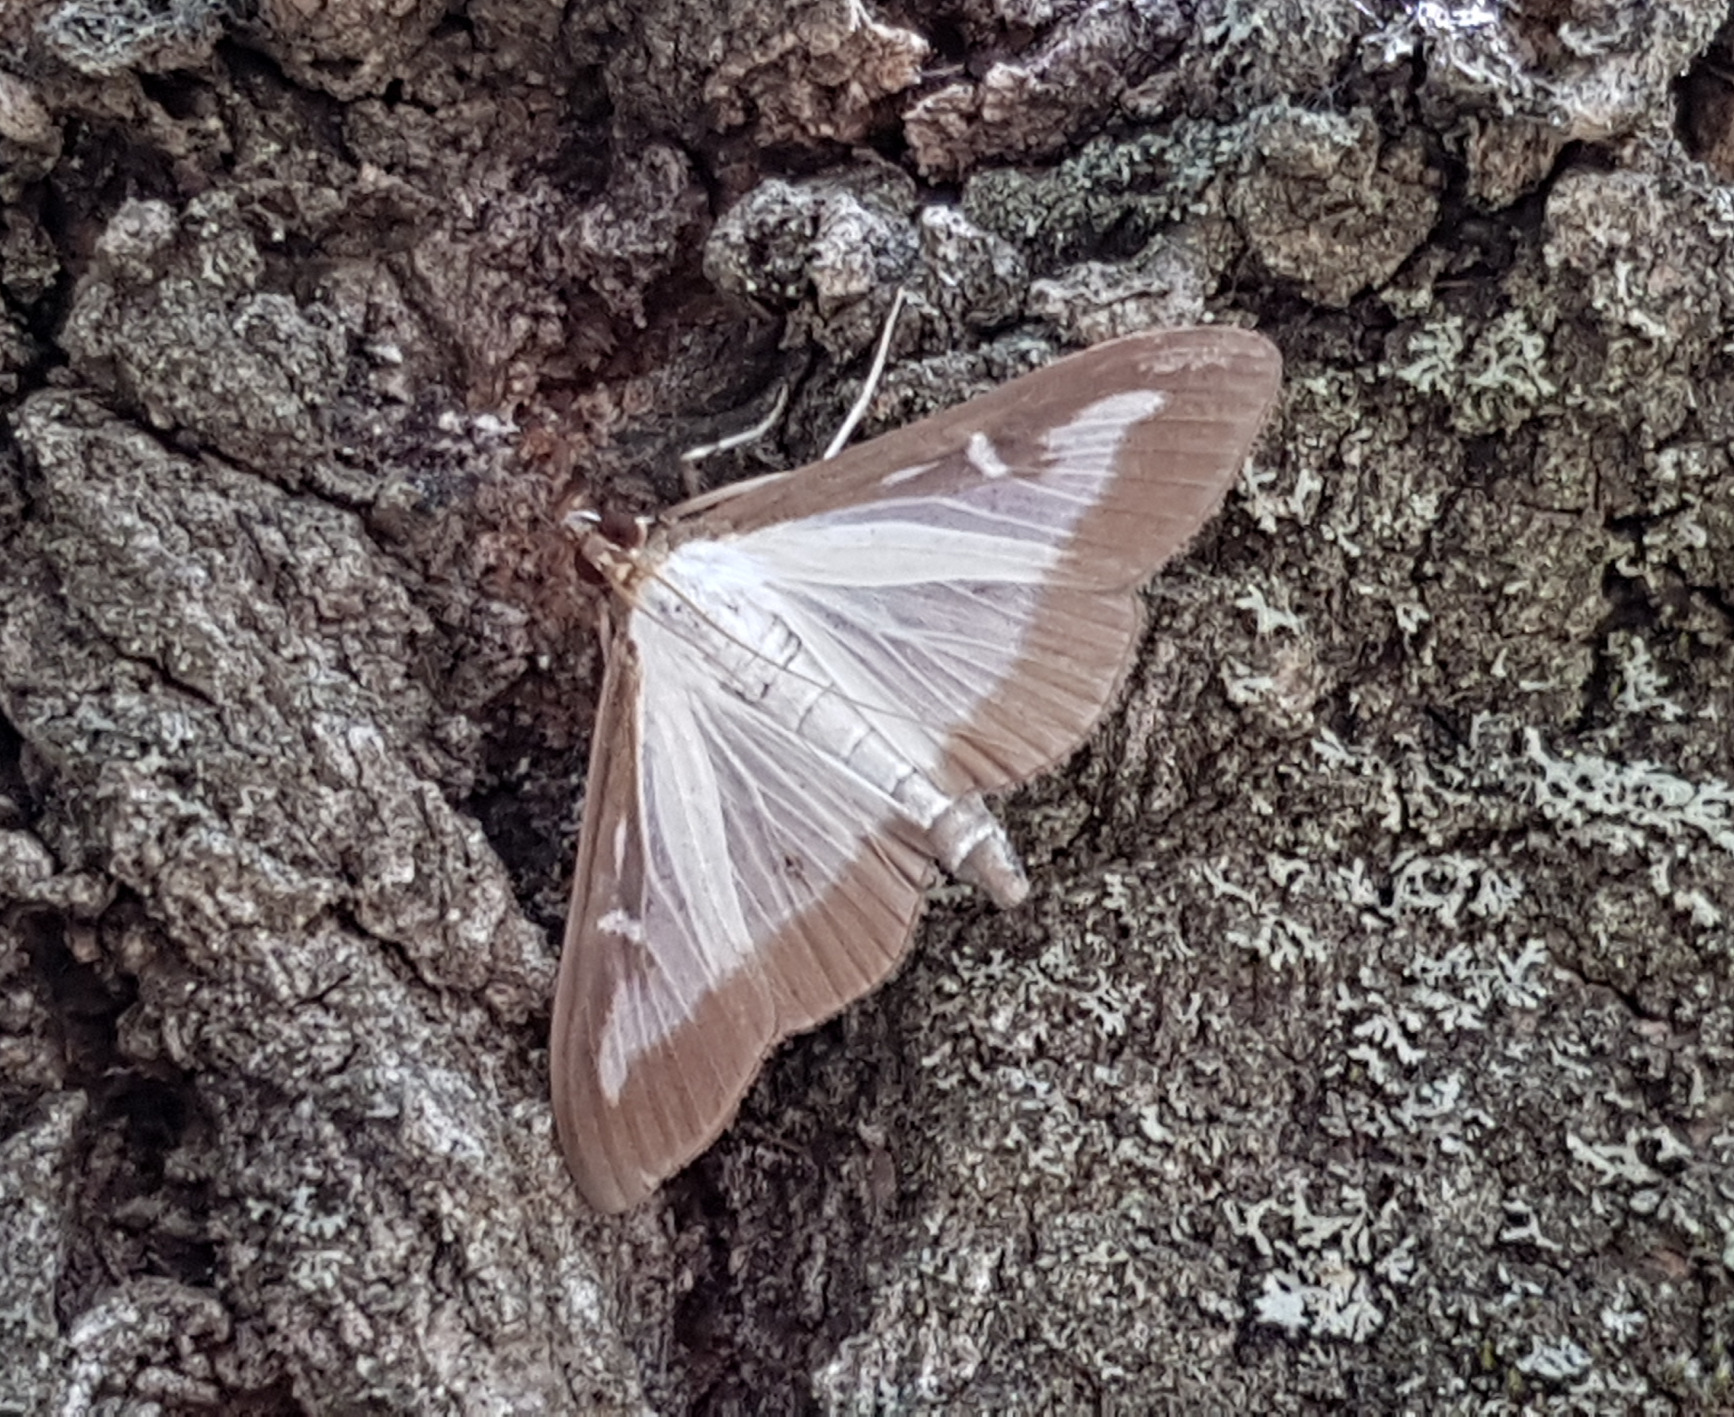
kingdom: Animalia
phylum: Arthropoda
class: Insecta
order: Lepidoptera
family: Crambidae
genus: Cydalima
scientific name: Cydalima perspectalis
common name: Box tree moth
